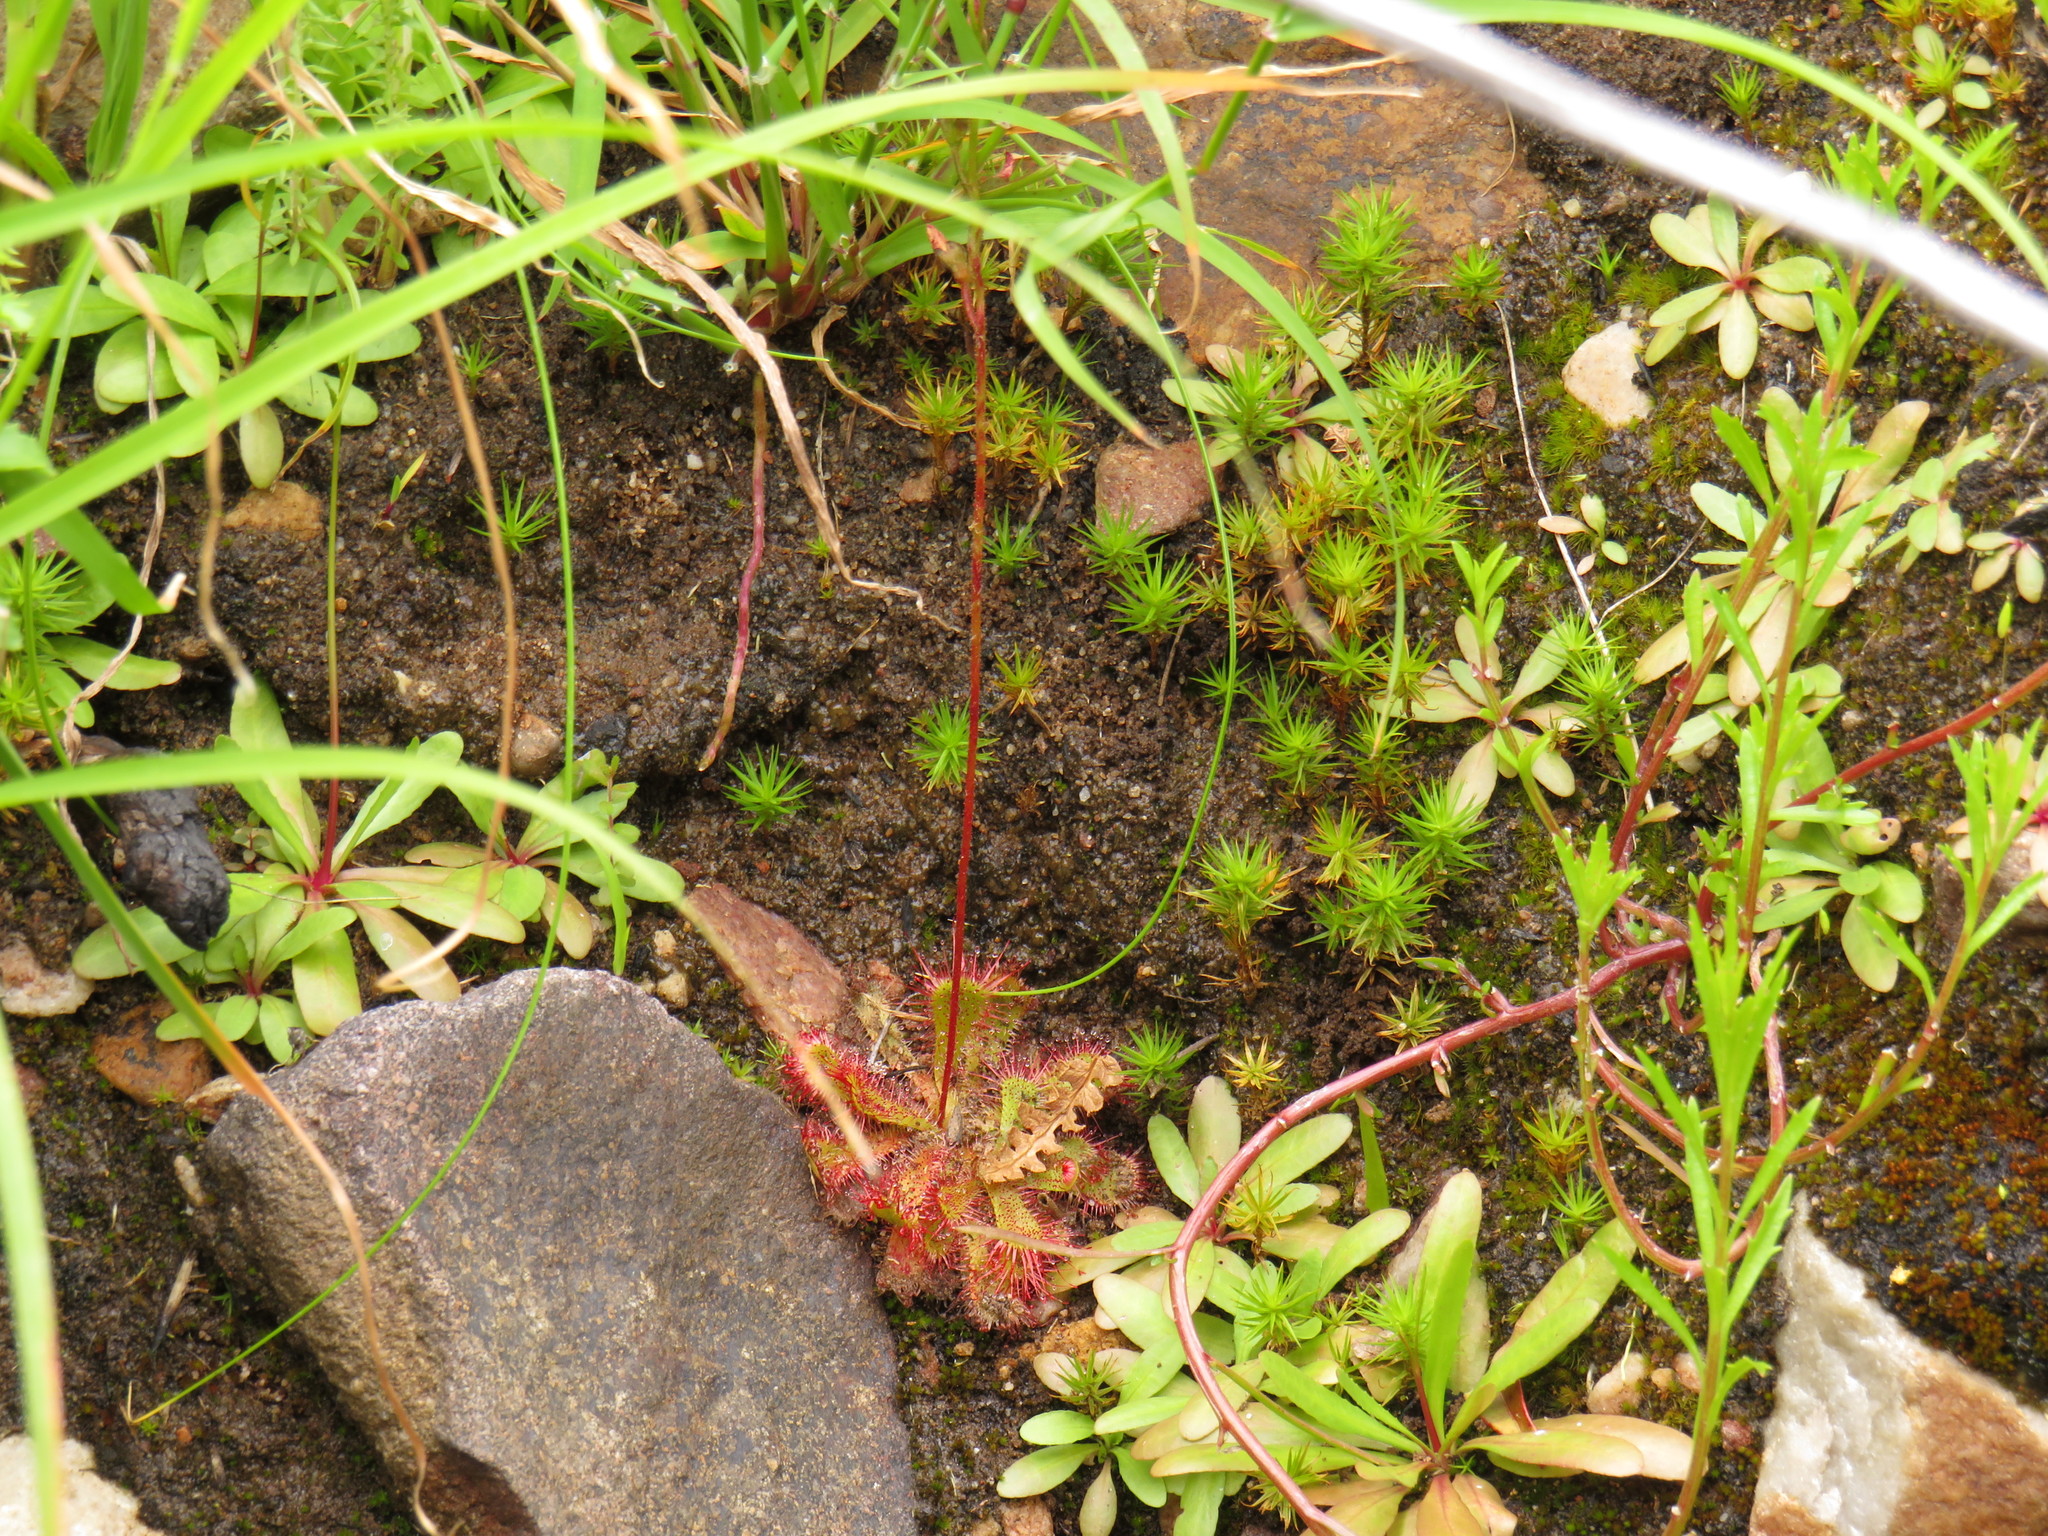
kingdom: Plantae
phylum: Tracheophyta
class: Magnoliopsida
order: Caryophyllales
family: Droseraceae
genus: Drosera
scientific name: Drosera trinervia
